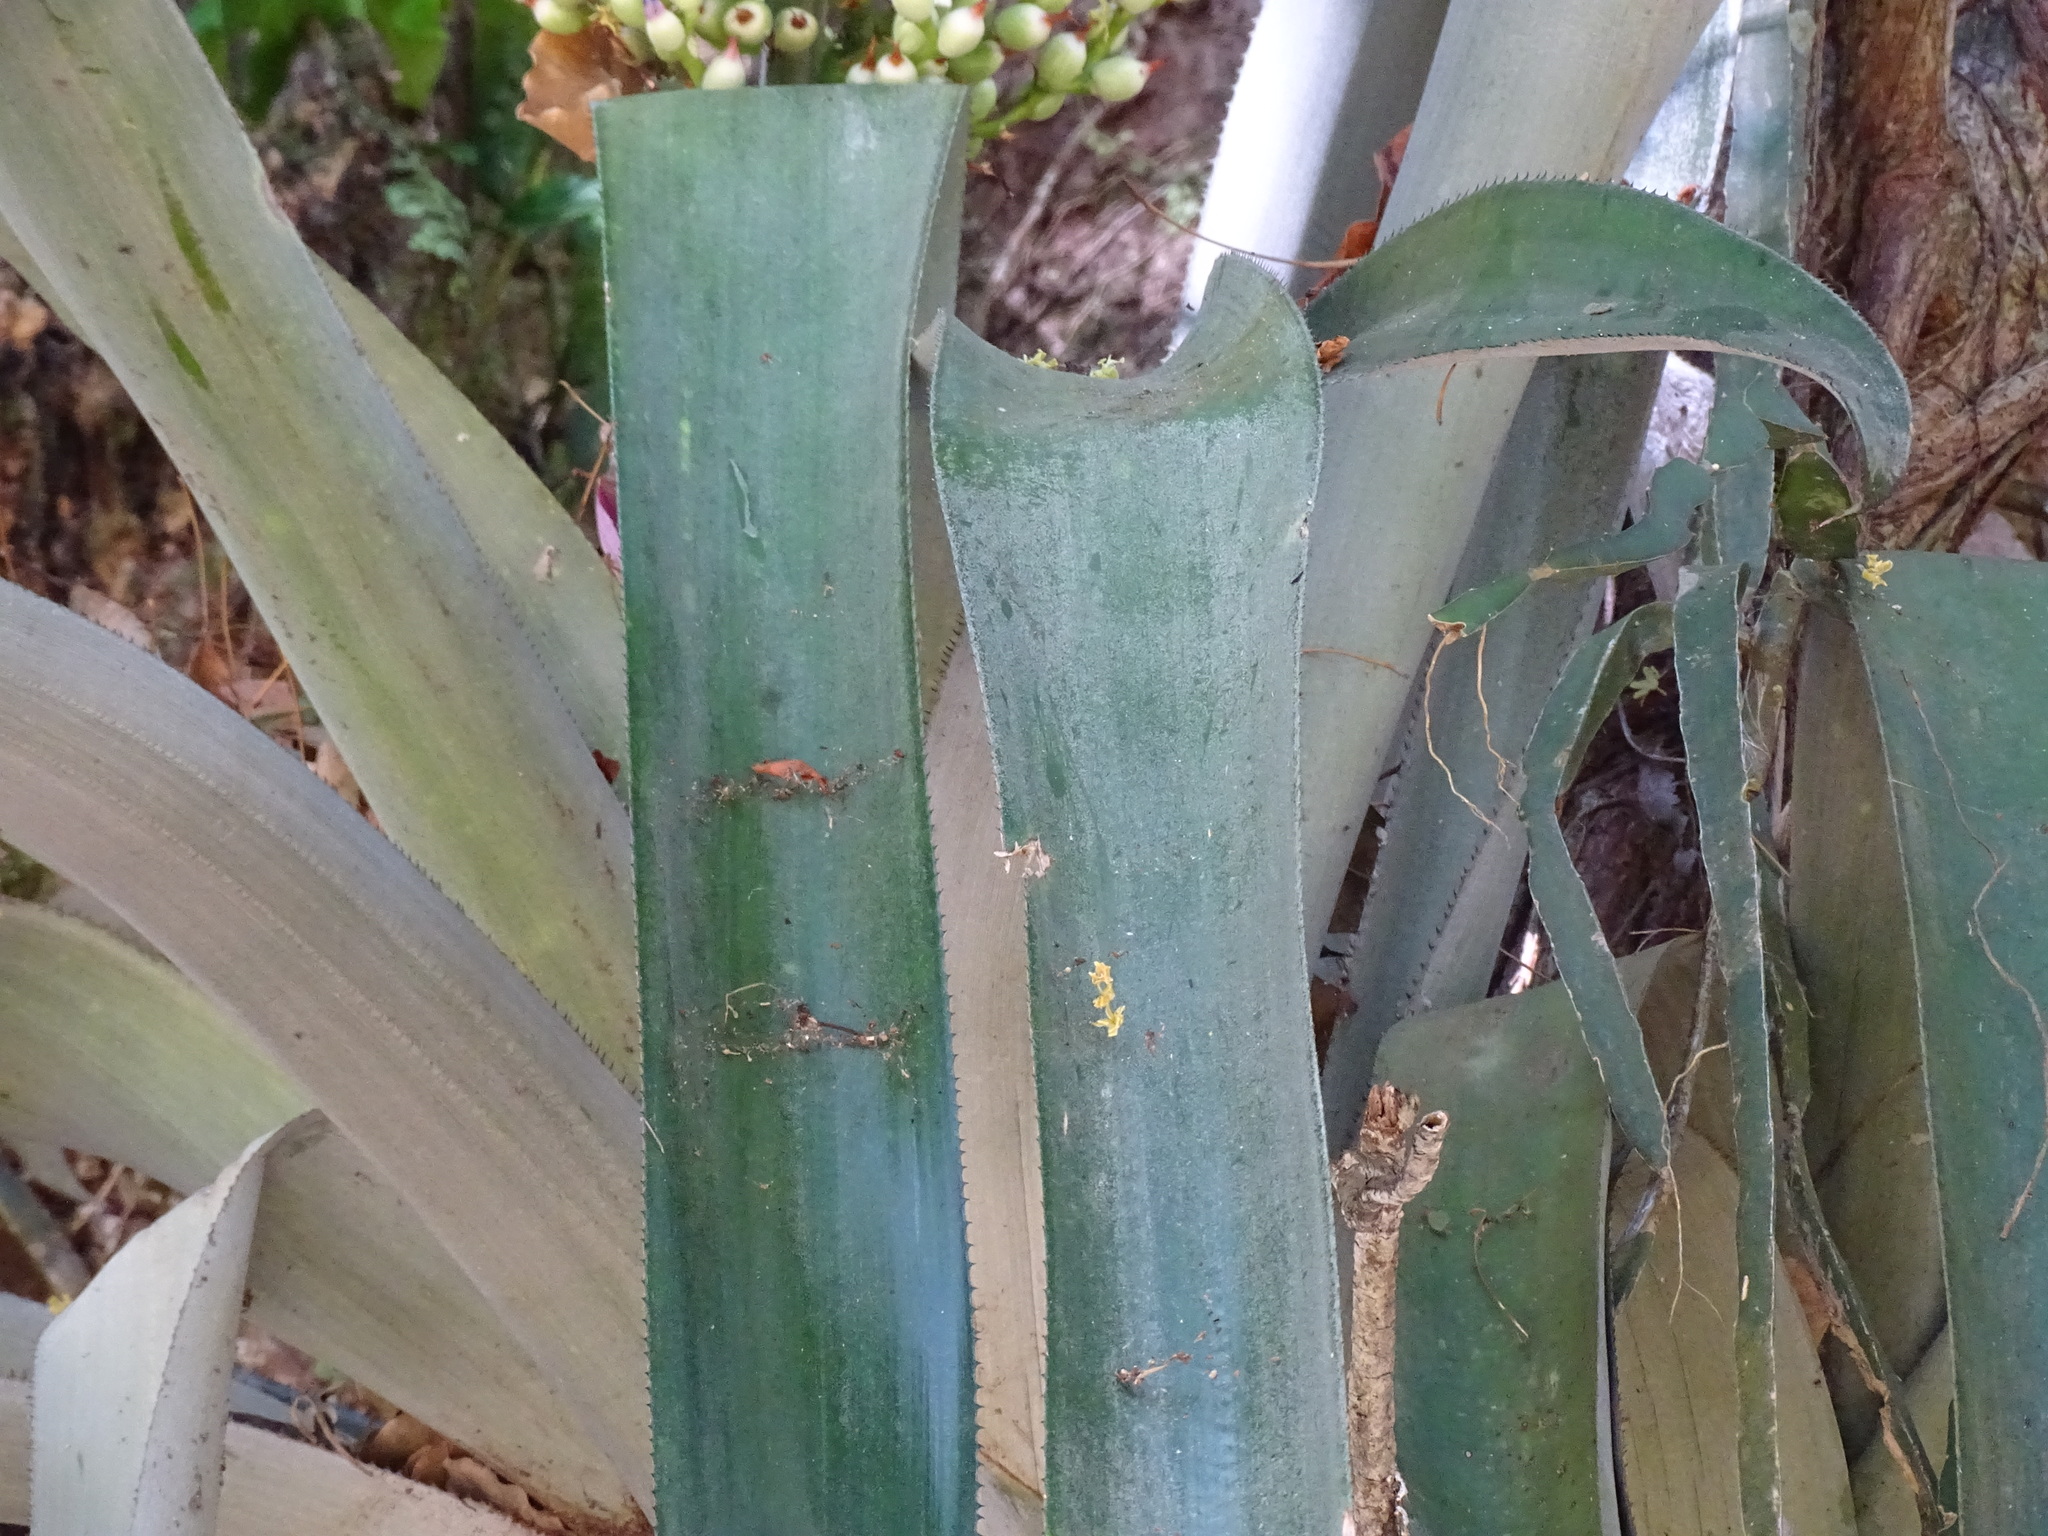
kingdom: Plantae
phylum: Tracheophyta
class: Liliopsida
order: Poales
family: Bromeliaceae
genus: Aechmea
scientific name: Aechmea matudae
